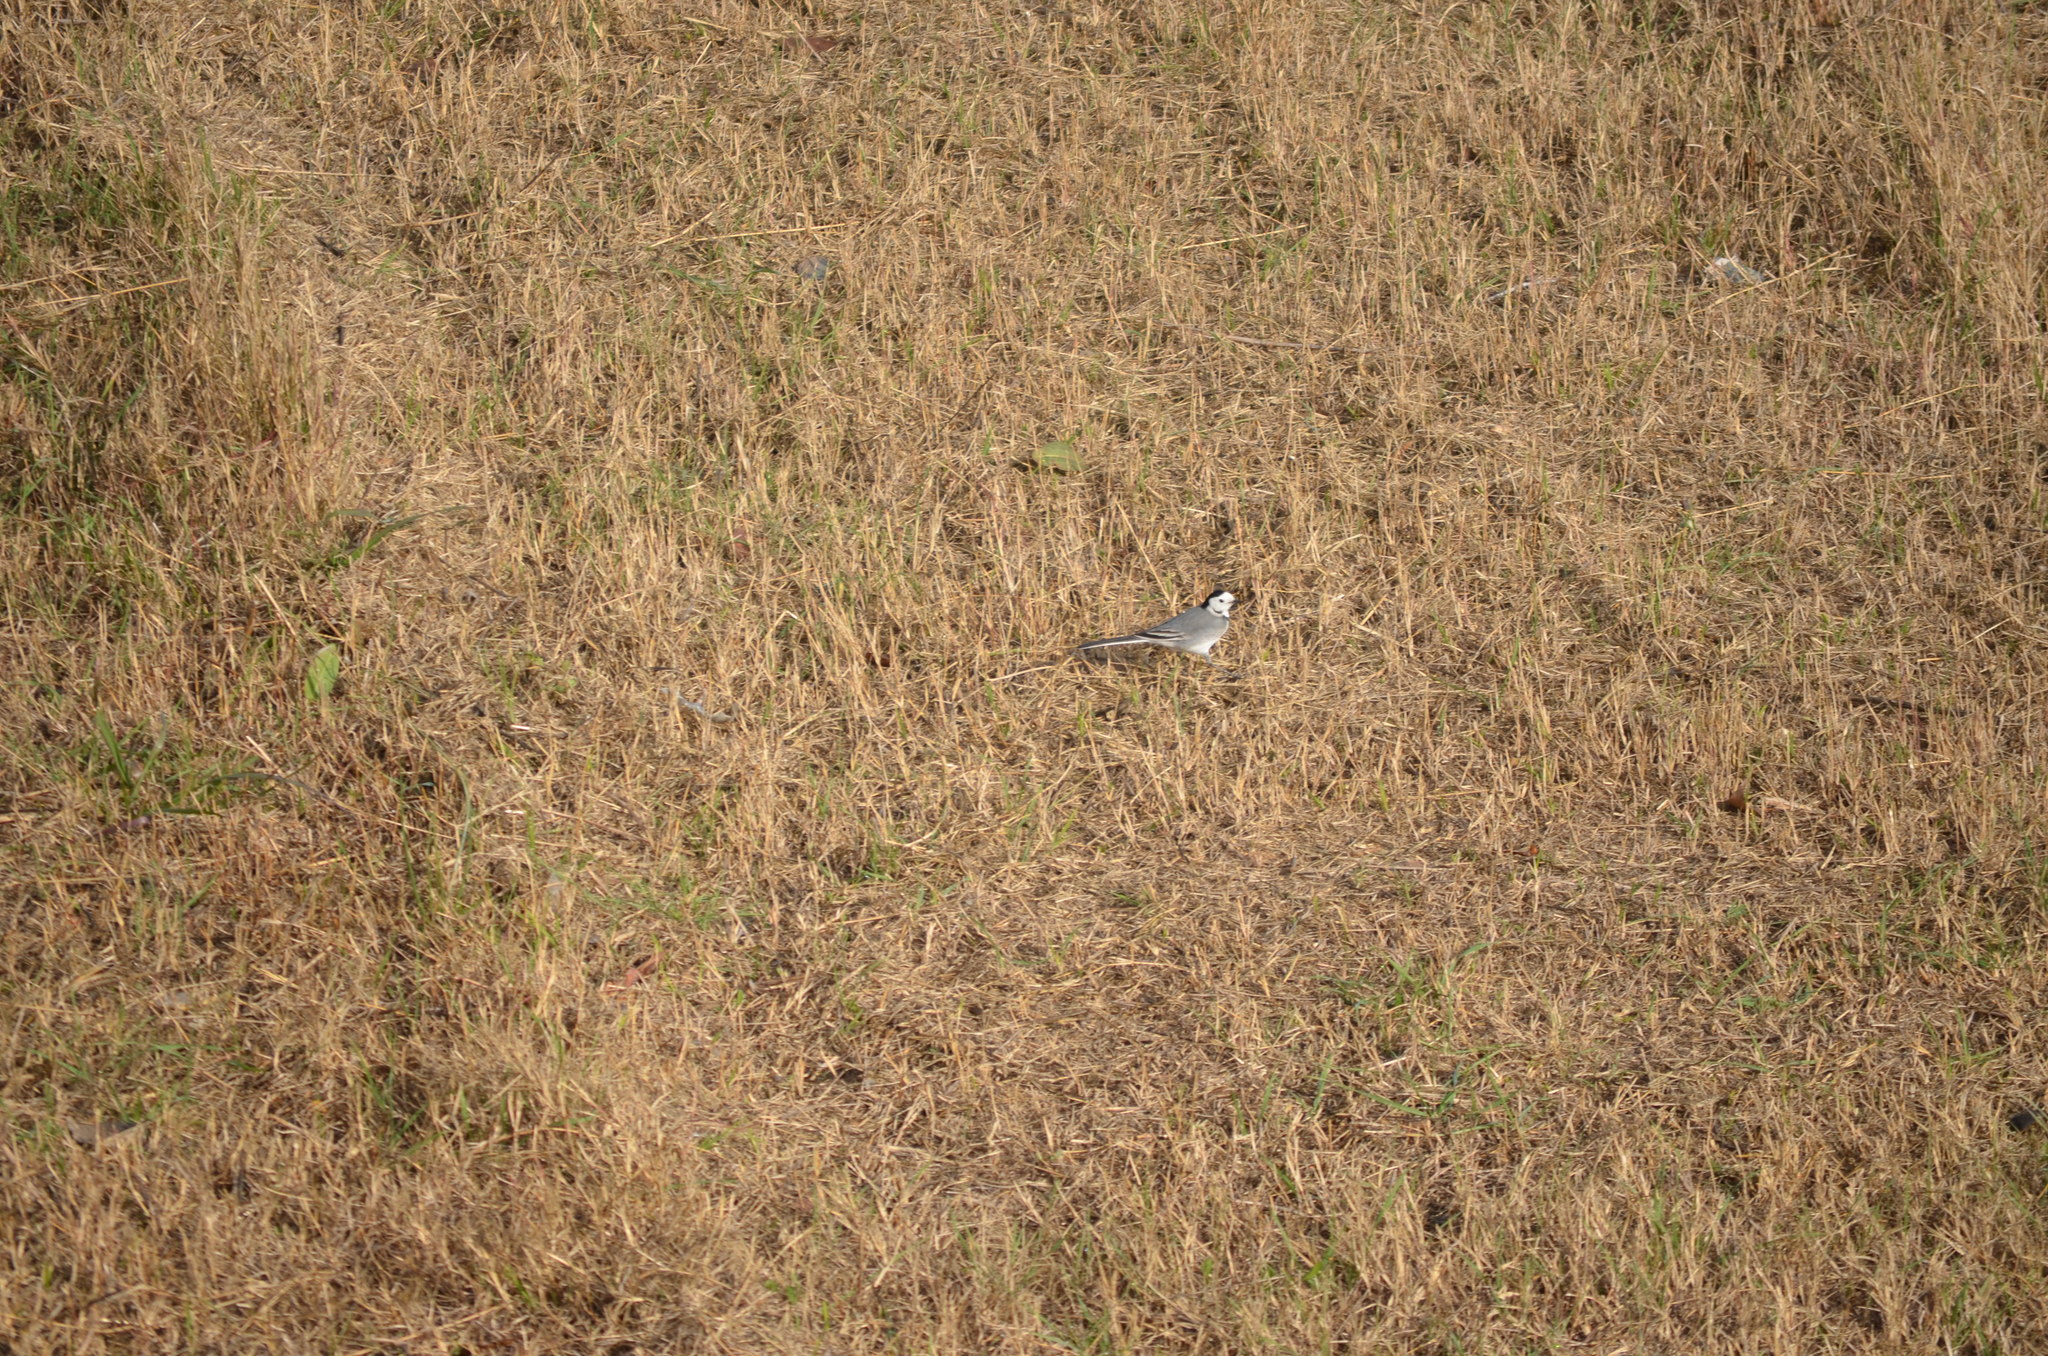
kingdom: Animalia
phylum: Chordata
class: Aves
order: Passeriformes
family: Motacillidae
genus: Motacilla
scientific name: Motacilla alba
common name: White wagtail
